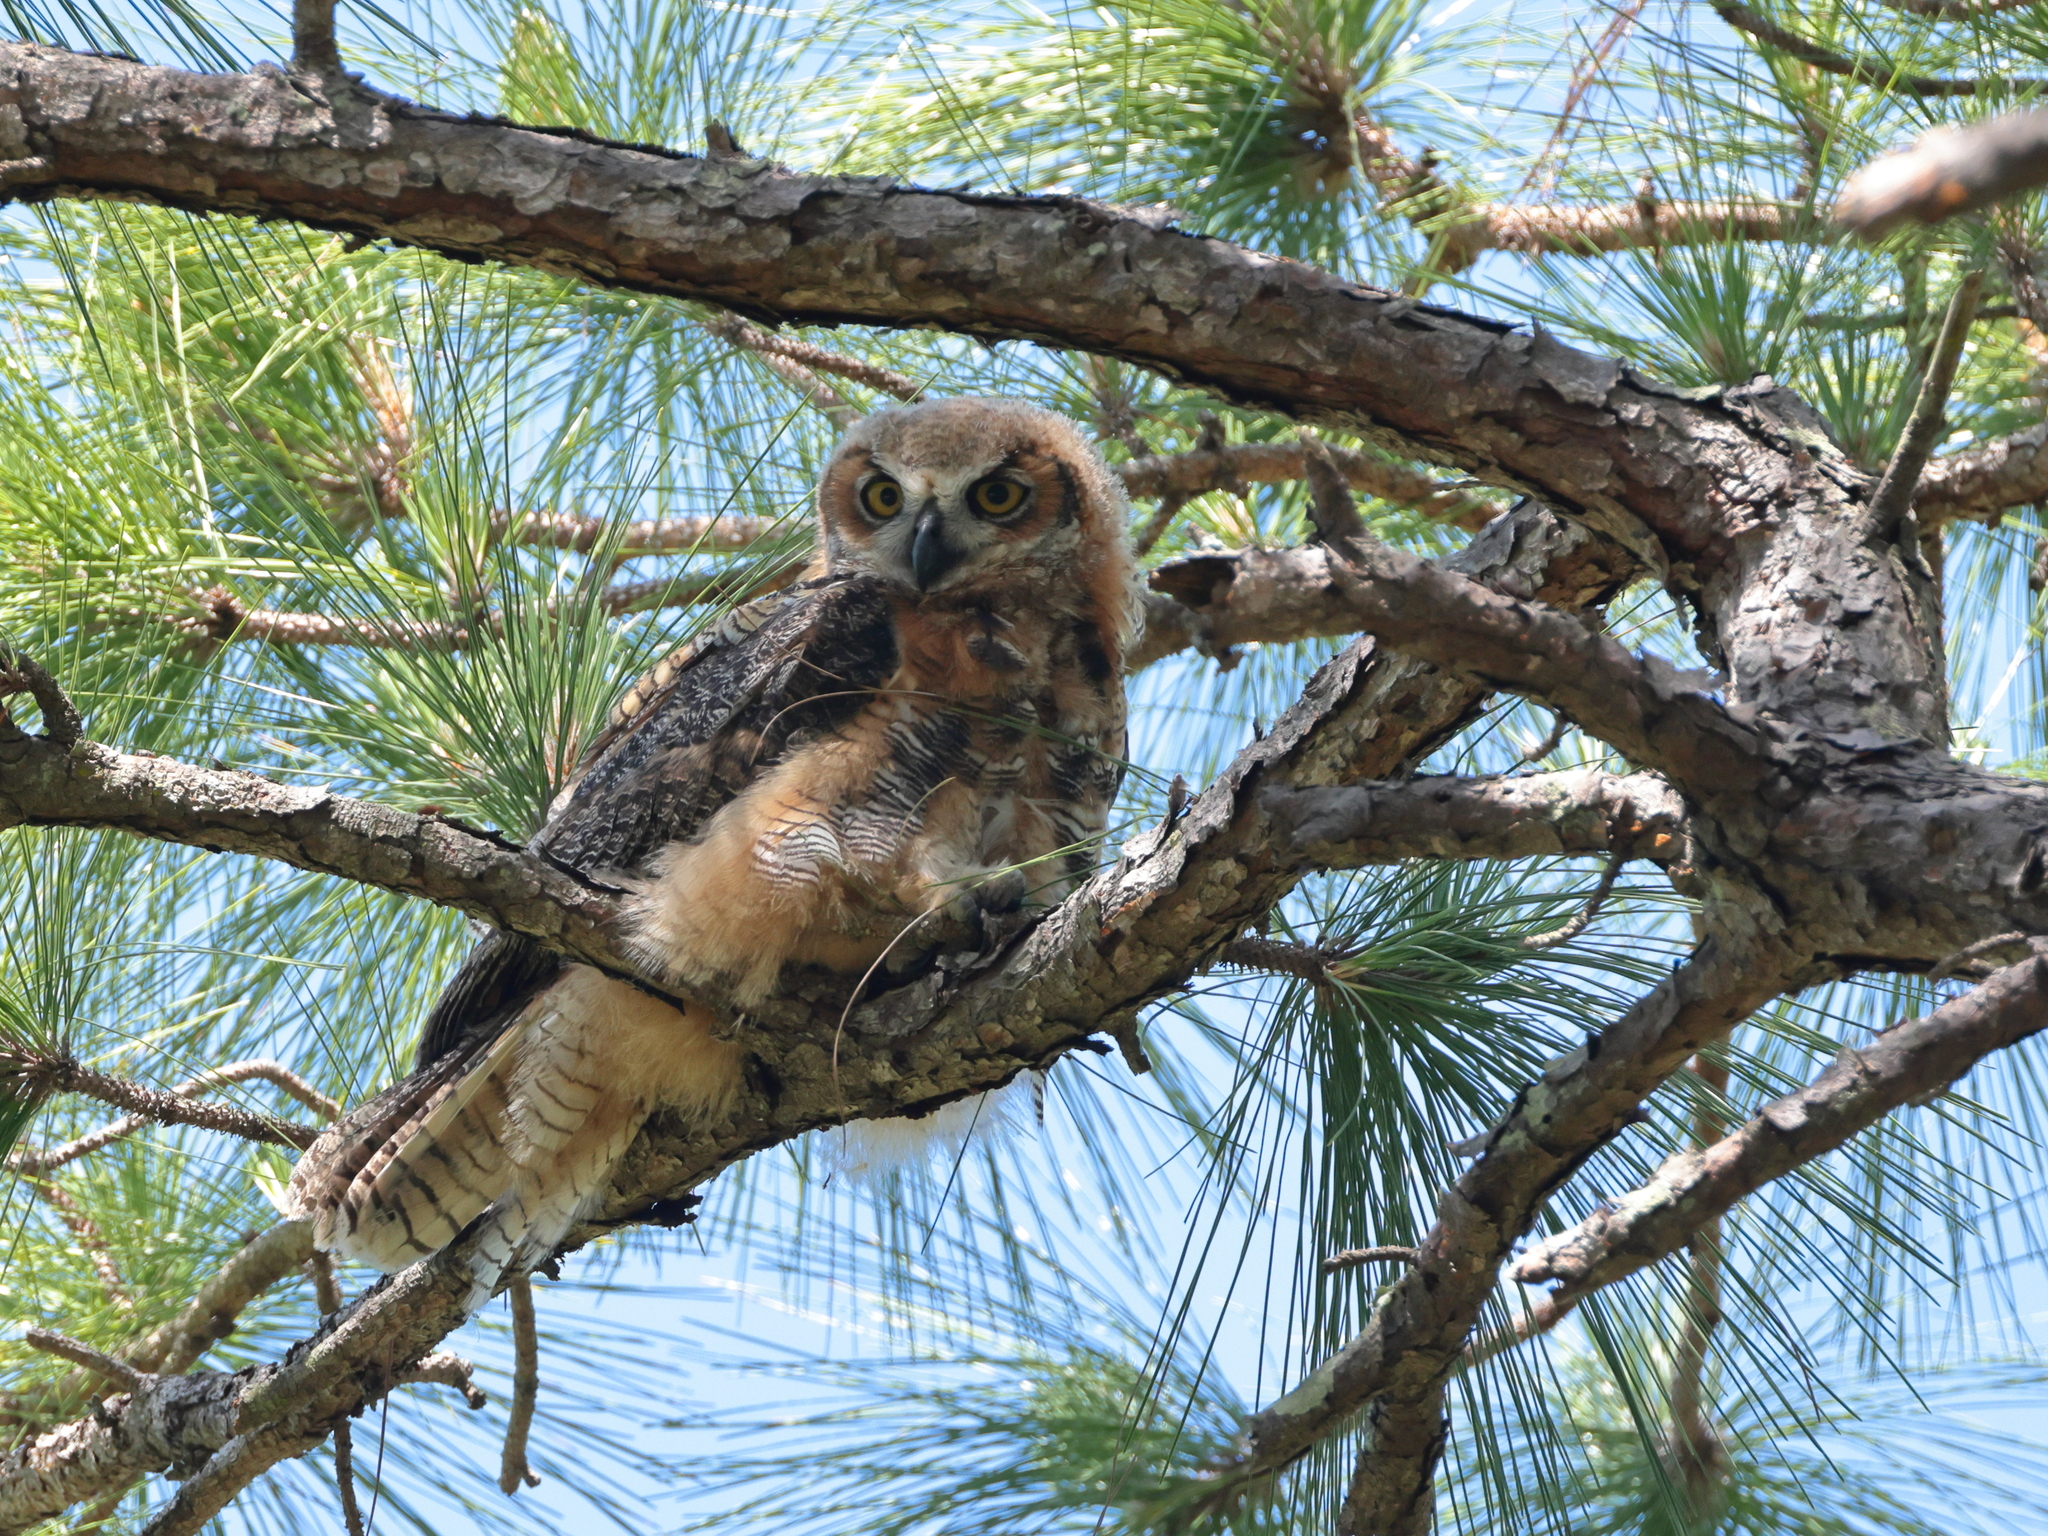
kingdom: Animalia
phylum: Chordata
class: Aves
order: Strigiformes
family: Strigidae
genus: Bubo
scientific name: Bubo virginianus
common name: Great horned owl
